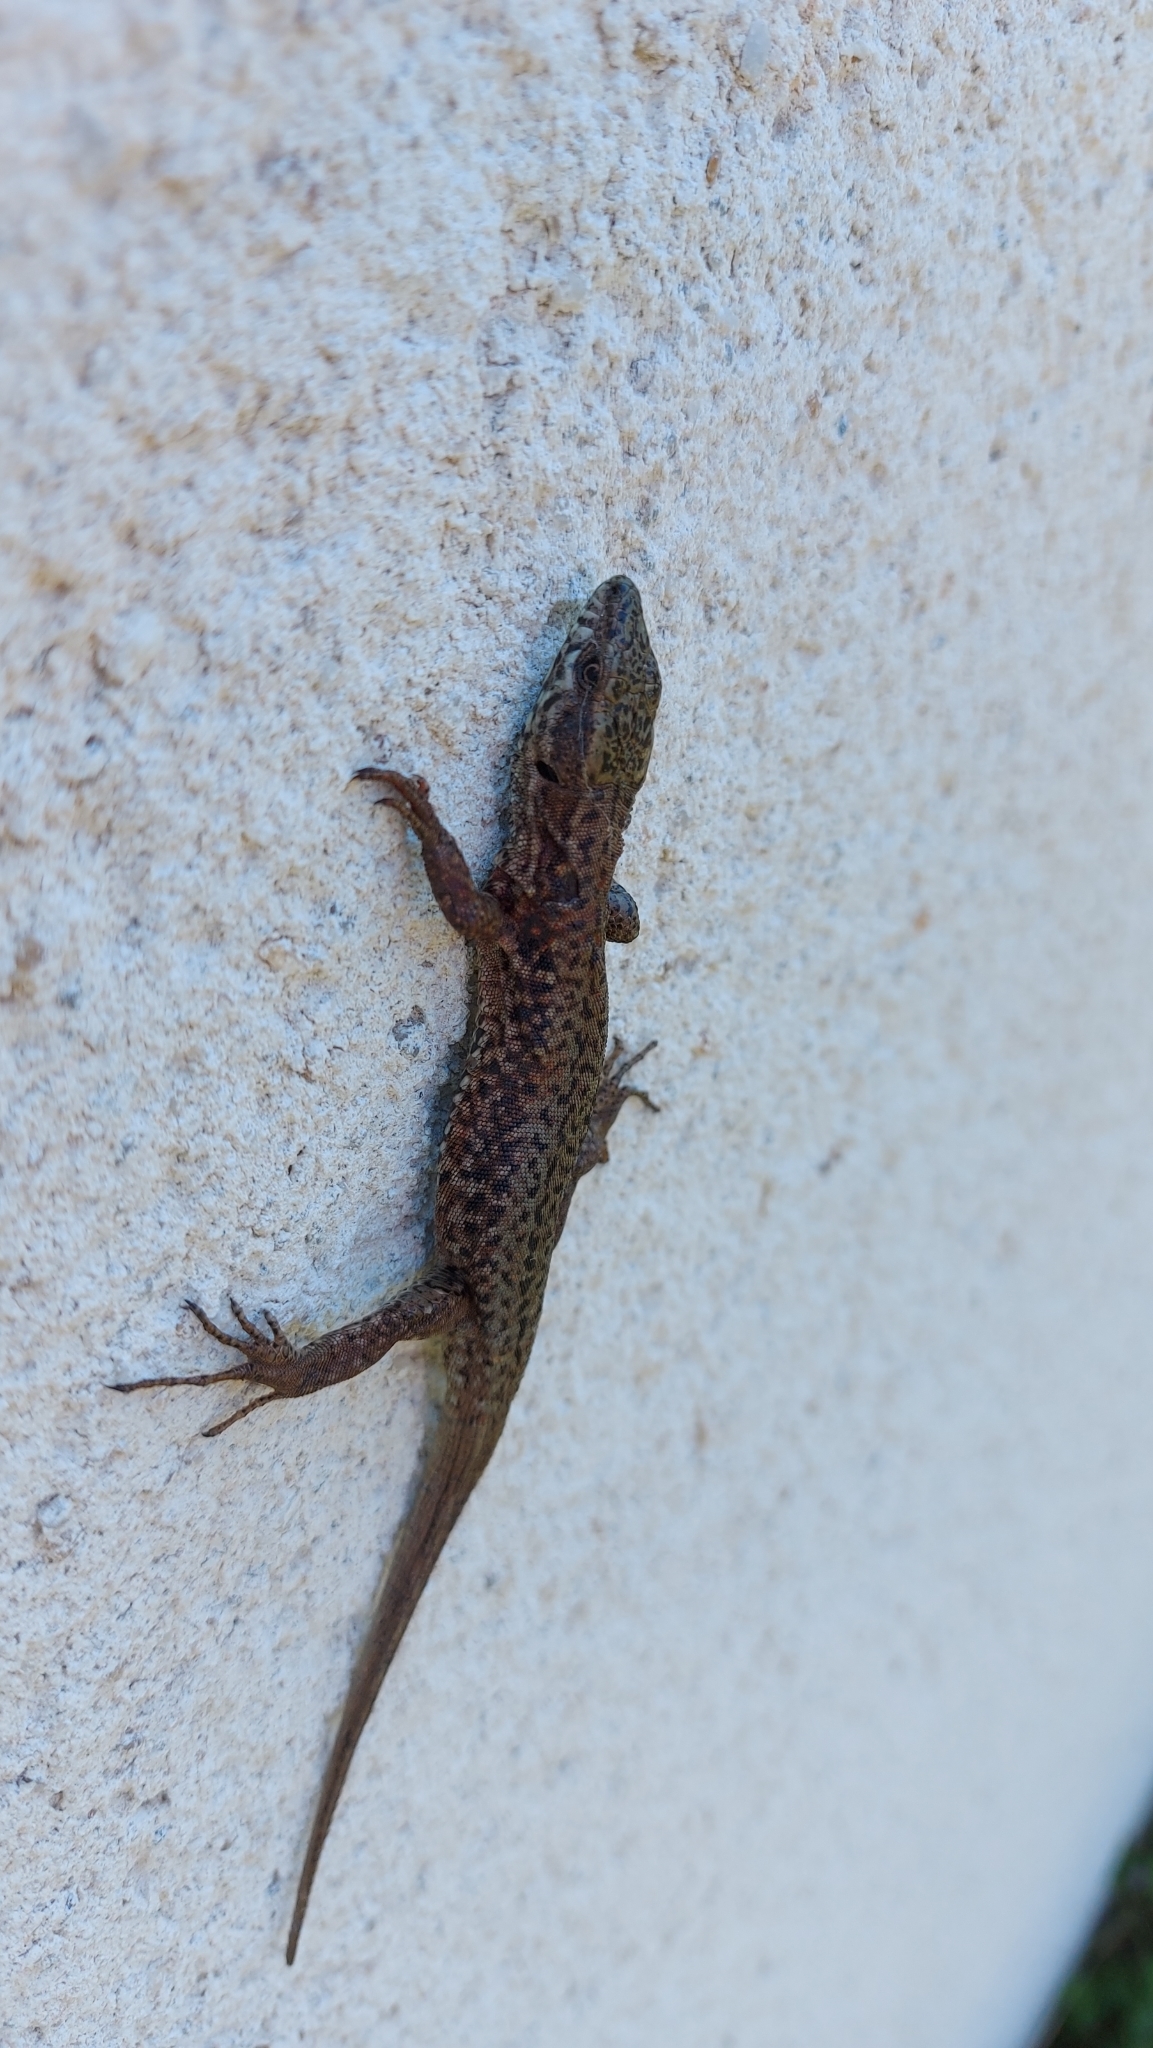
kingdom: Animalia
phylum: Chordata
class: Squamata
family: Lacertidae
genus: Podarcis
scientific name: Podarcis muralis
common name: Common wall lizard
